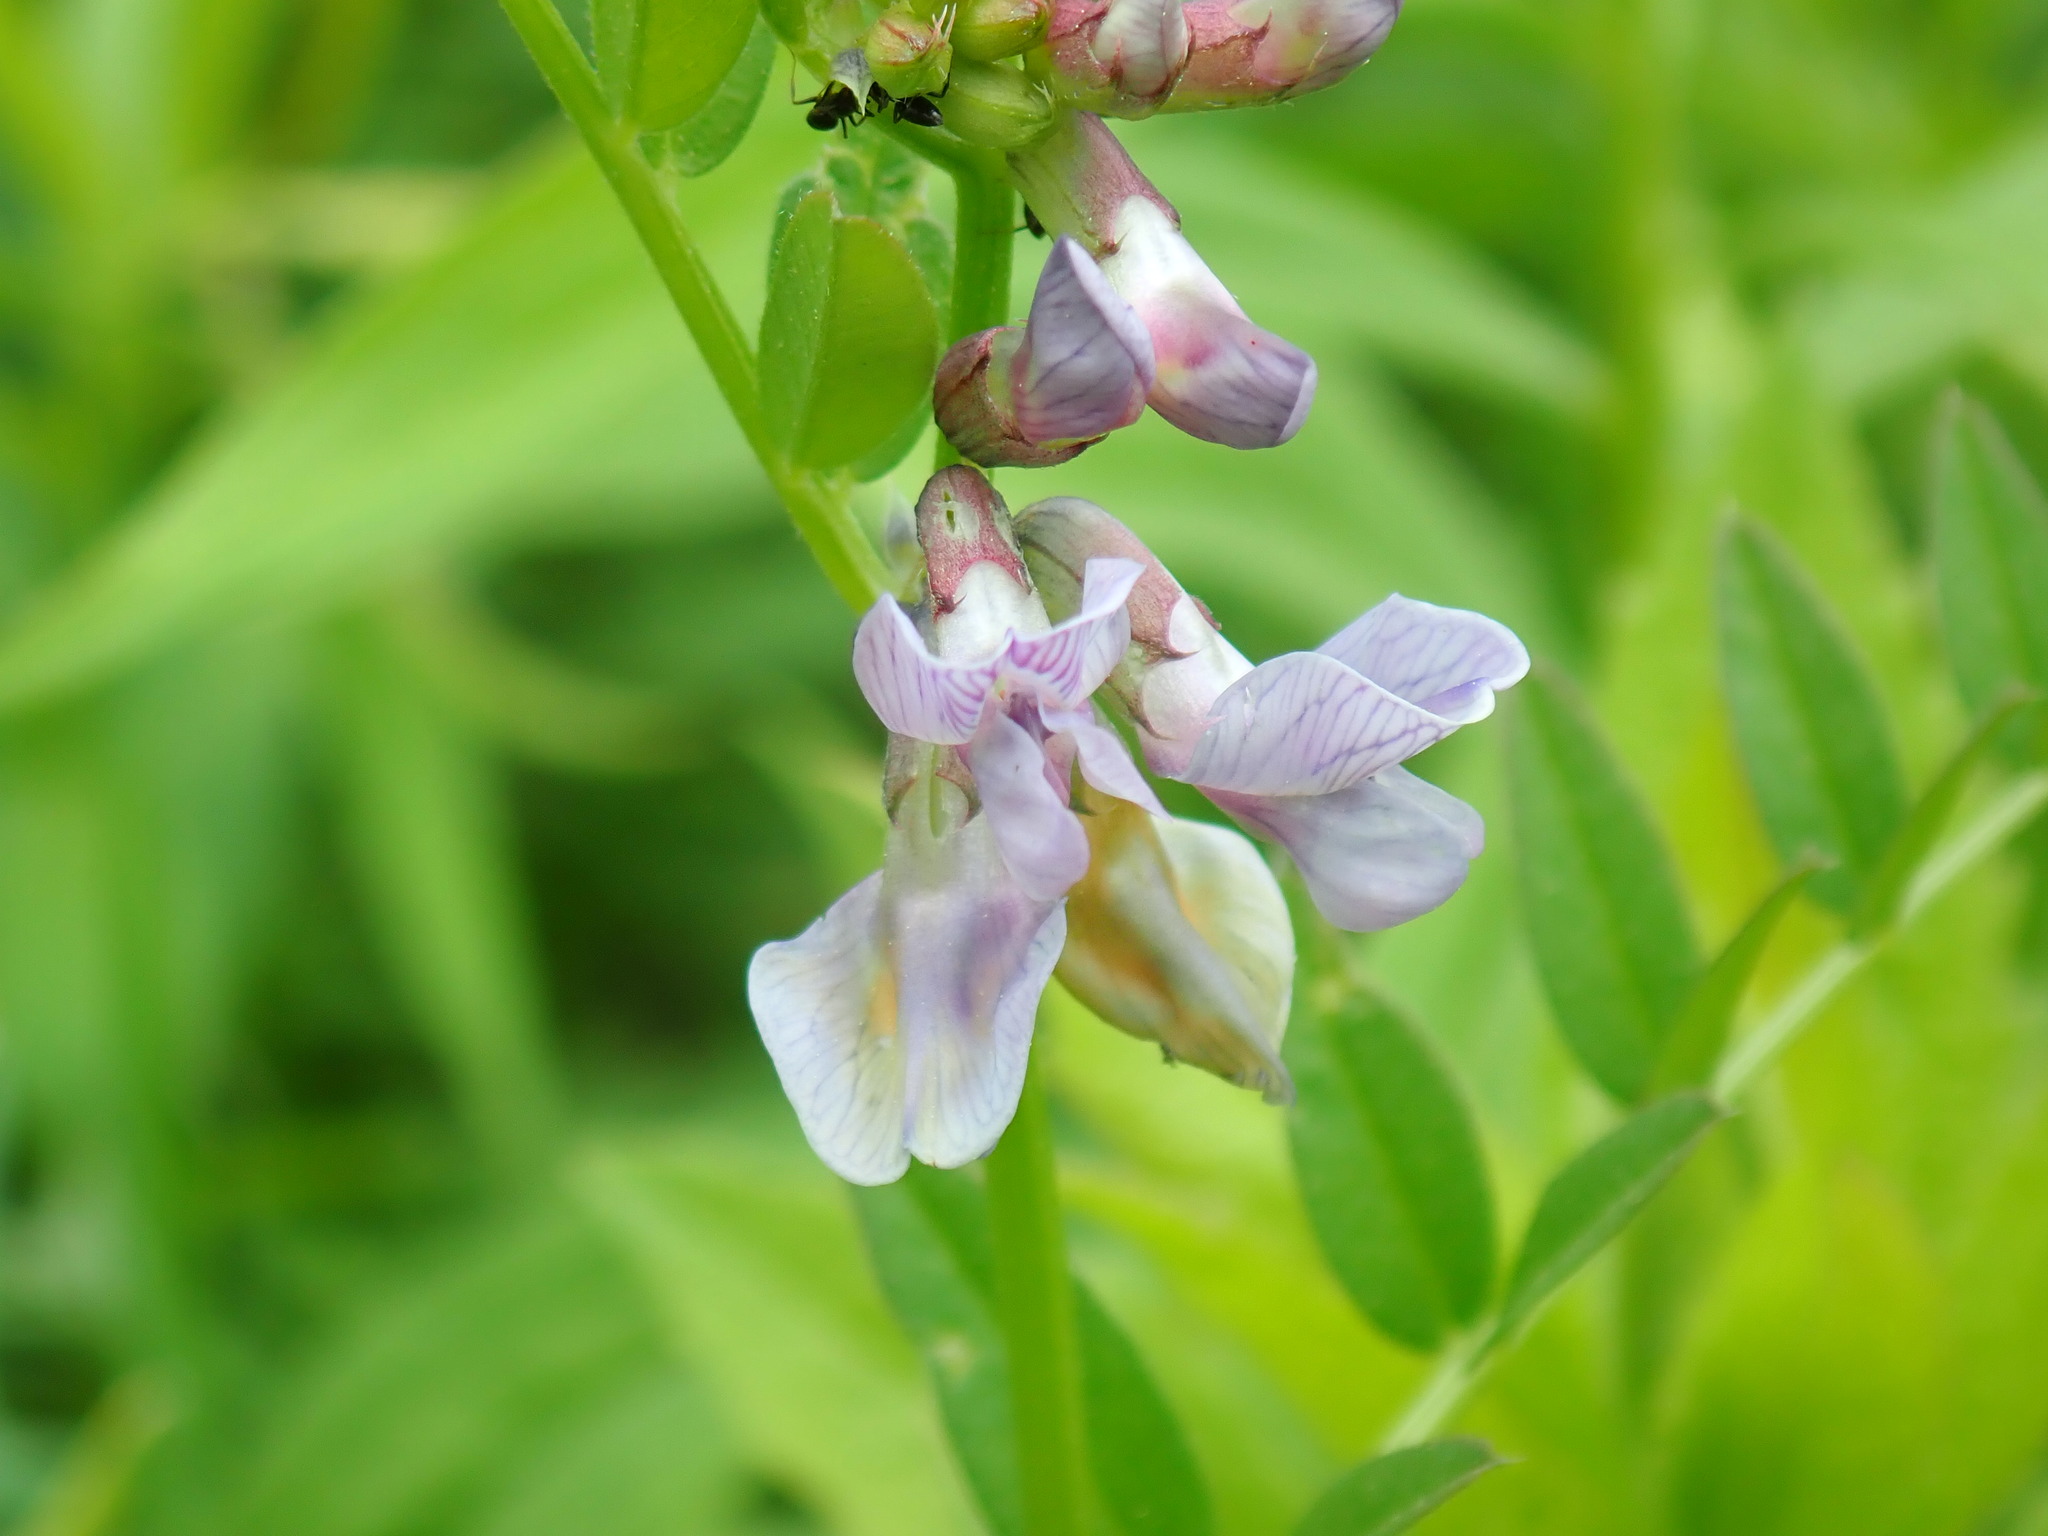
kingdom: Plantae
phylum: Tracheophyta
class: Magnoliopsida
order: Fabales
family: Fabaceae
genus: Vicia
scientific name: Vicia sepium
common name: Bush vetch
